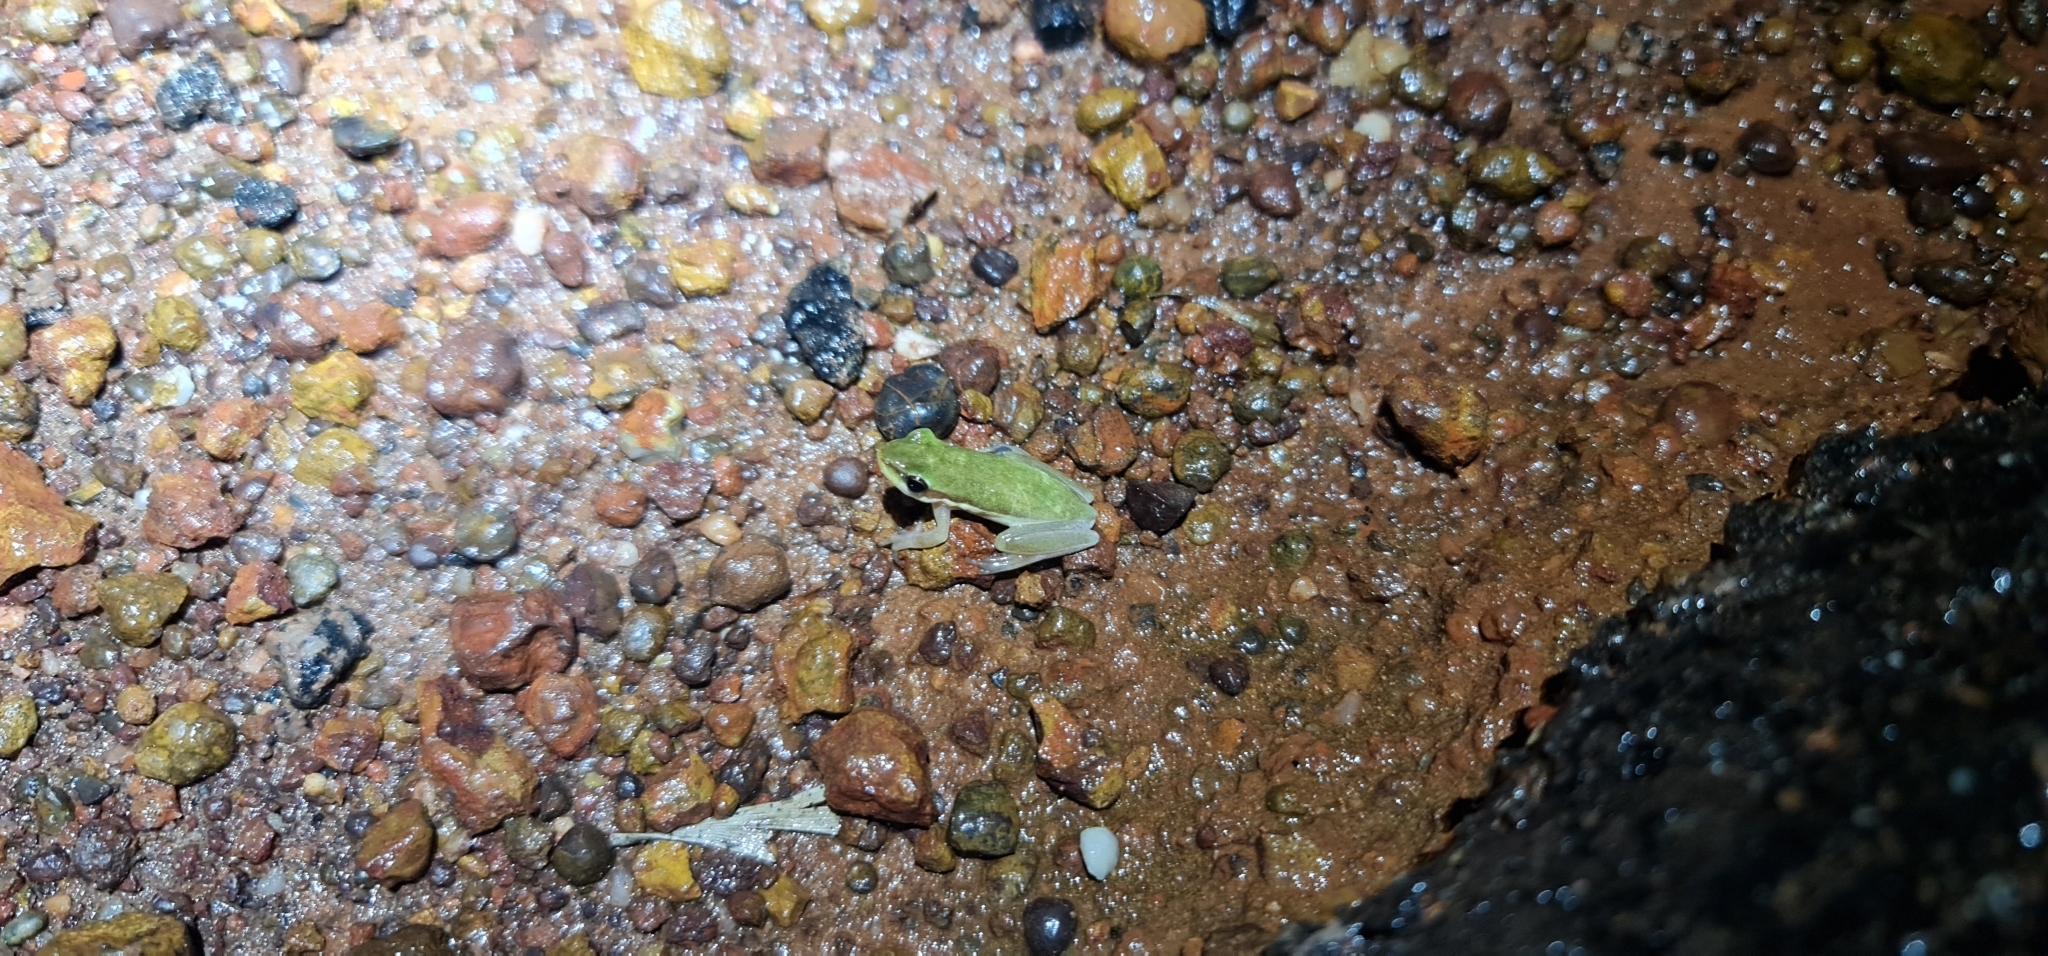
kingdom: Animalia
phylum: Chordata
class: Amphibia
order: Anura
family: Pelodryadidae
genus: Litoria
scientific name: Litoria bicolor
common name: Green reed frog
